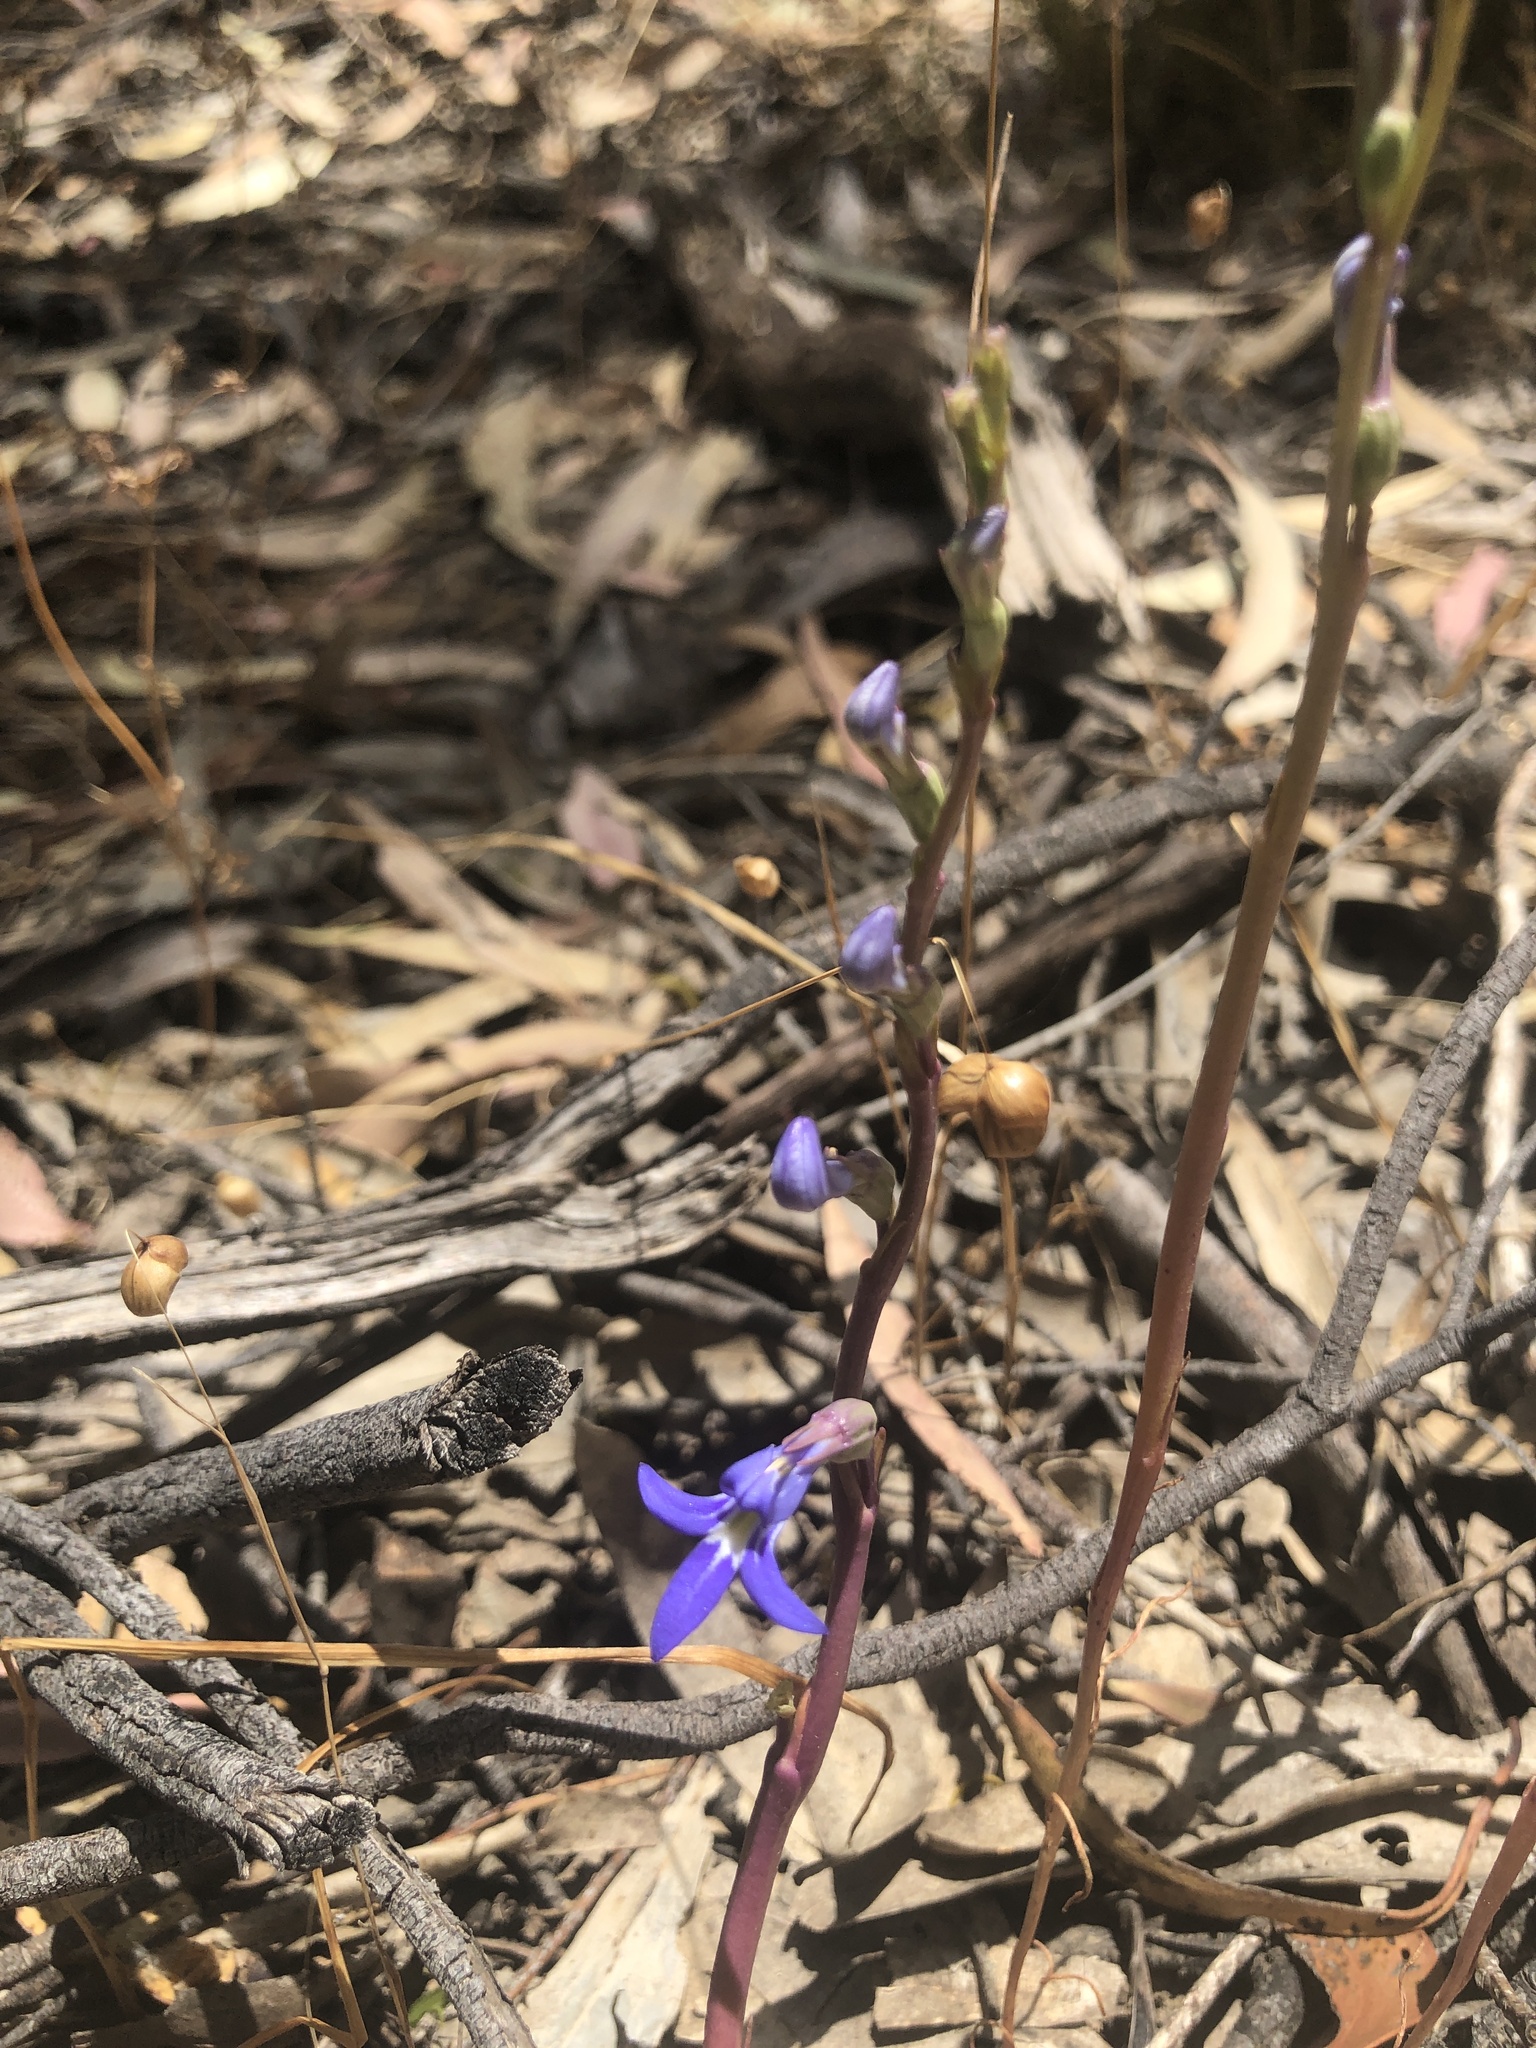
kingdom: Plantae
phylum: Tracheophyta
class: Magnoliopsida
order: Asterales
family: Campanulaceae
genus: Lobelia
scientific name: Lobelia gibbosa
